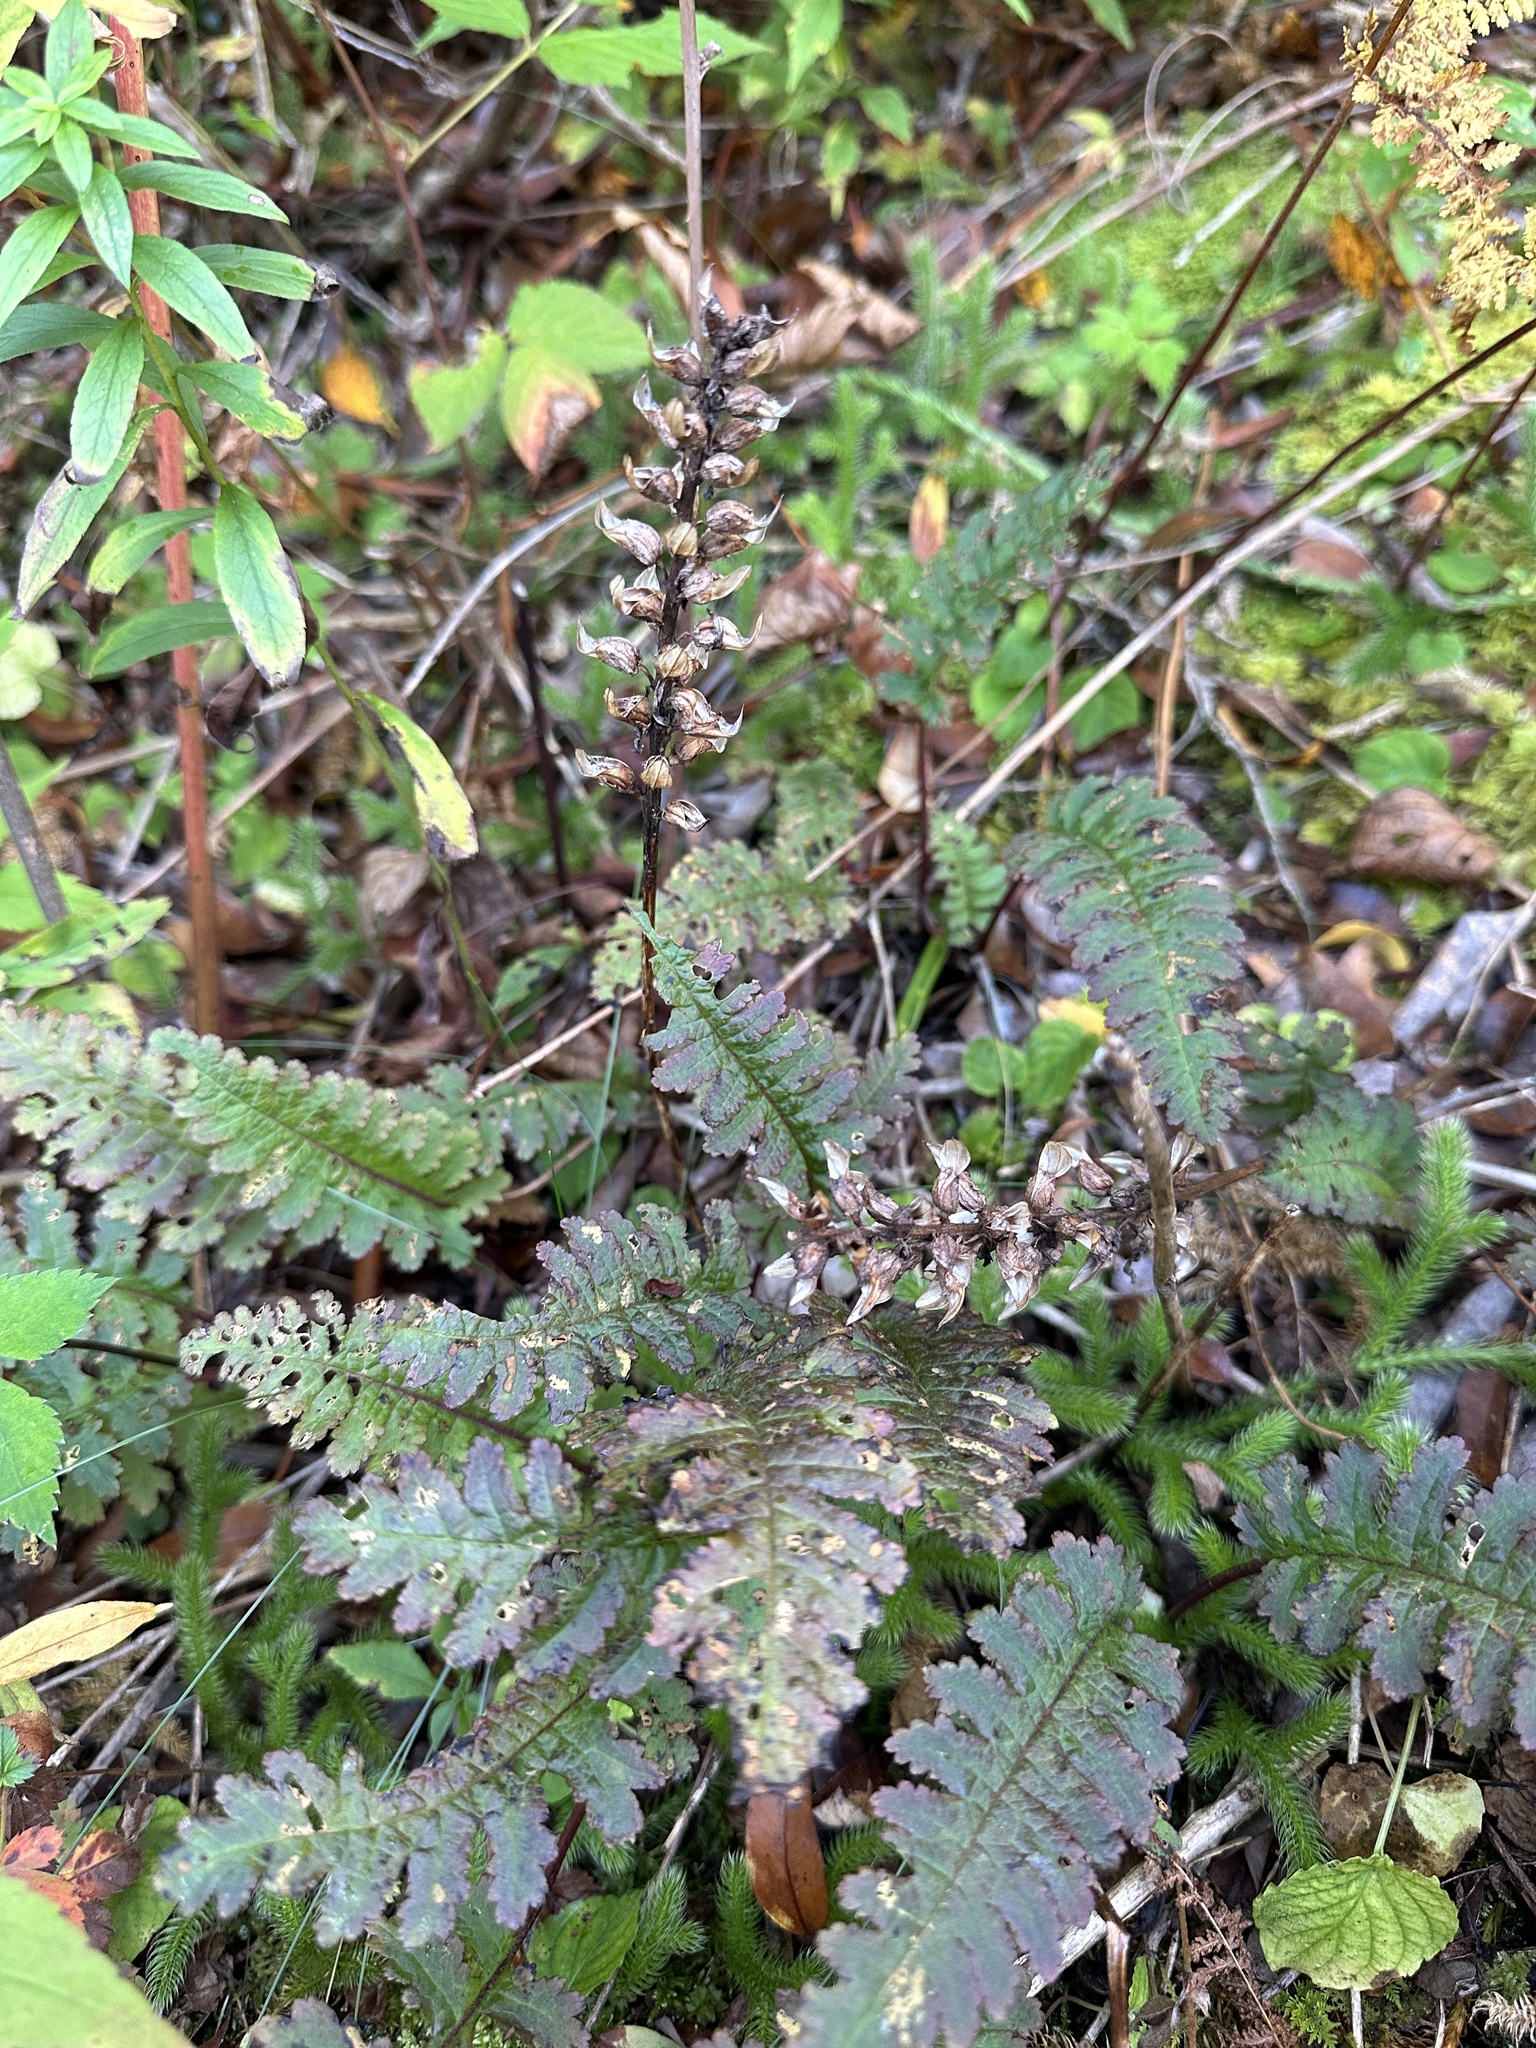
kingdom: Plantae
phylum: Tracheophyta
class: Magnoliopsida
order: Lamiales
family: Orobanchaceae
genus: Pedicularis
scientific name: Pedicularis canadensis
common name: Early lousewort
